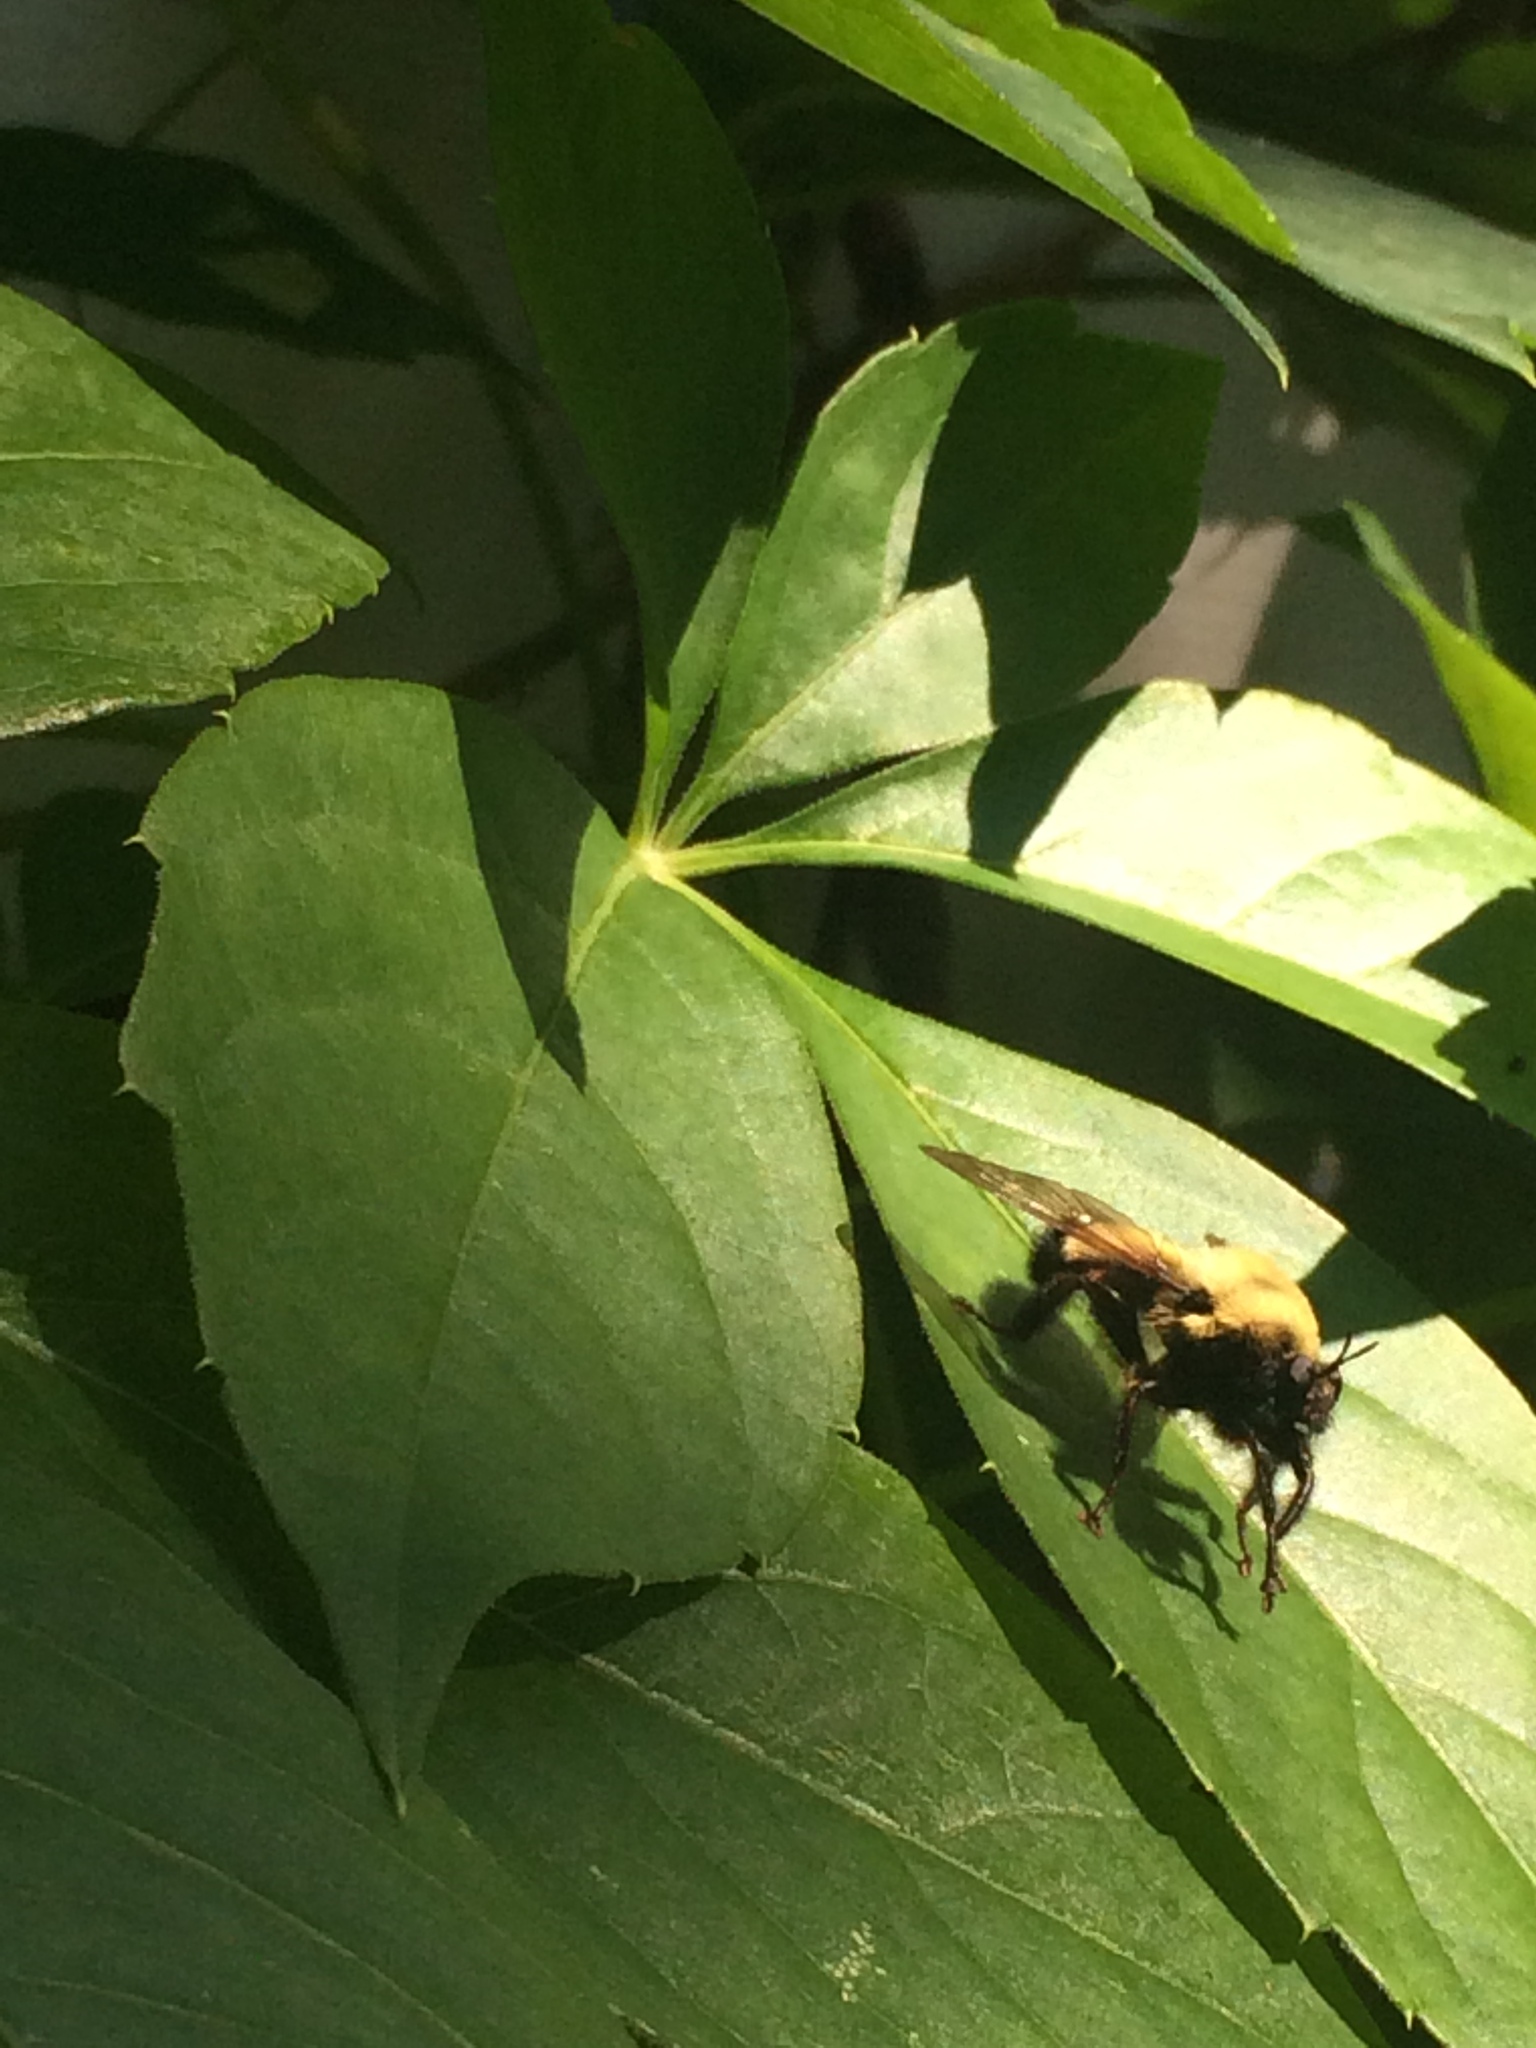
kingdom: Animalia
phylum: Arthropoda
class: Insecta
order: Diptera
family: Asilidae
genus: Laphria
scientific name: Laphria thoracica
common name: Bumble bee mimic robber fly
